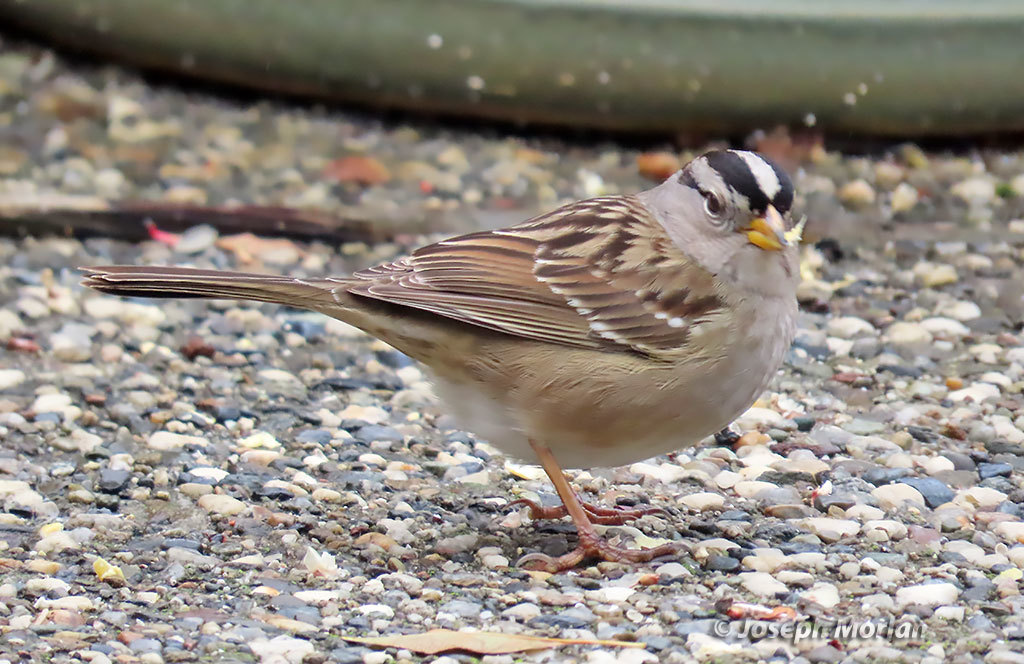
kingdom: Animalia
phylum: Chordata
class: Aves
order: Passeriformes
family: Passerellidae
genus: Zonotrichia
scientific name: Zonotrichia leucophrys
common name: White-crowned sparrow
